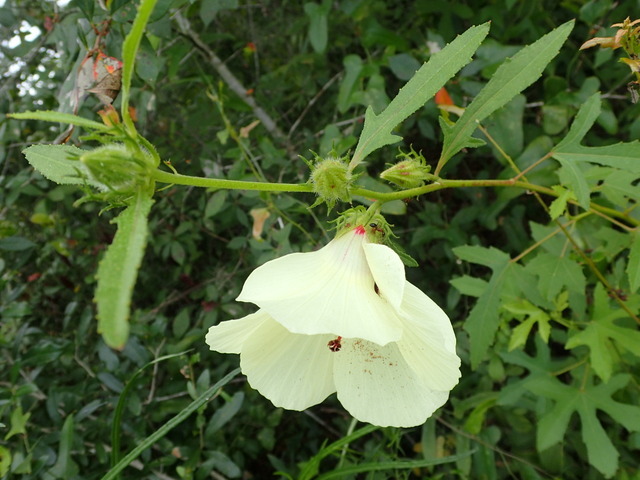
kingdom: Plantae
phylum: Tracheophyta
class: Magnoliopsida
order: Malvales
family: Malvaceae
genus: Hibiscus
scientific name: Hibiscus aculeatus
